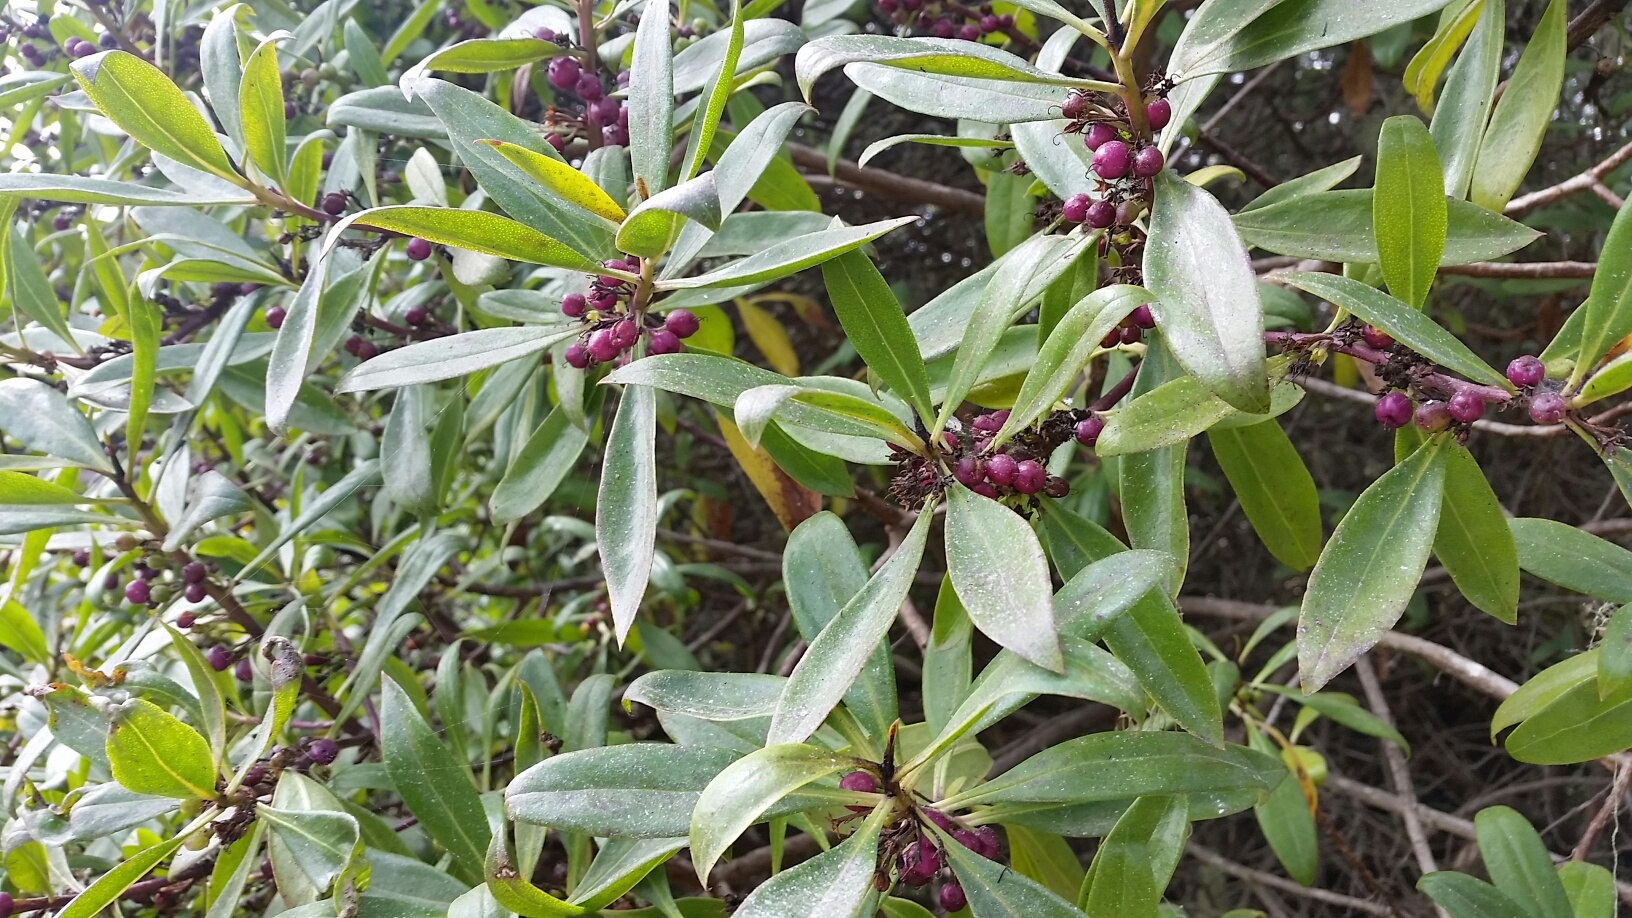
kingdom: Plantae
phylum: Tracheophyta
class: Magnoliopsida
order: Lamiales
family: Scrophulariaceae
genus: Myoporum
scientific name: Myoporum laetum
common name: Ngaio tree
